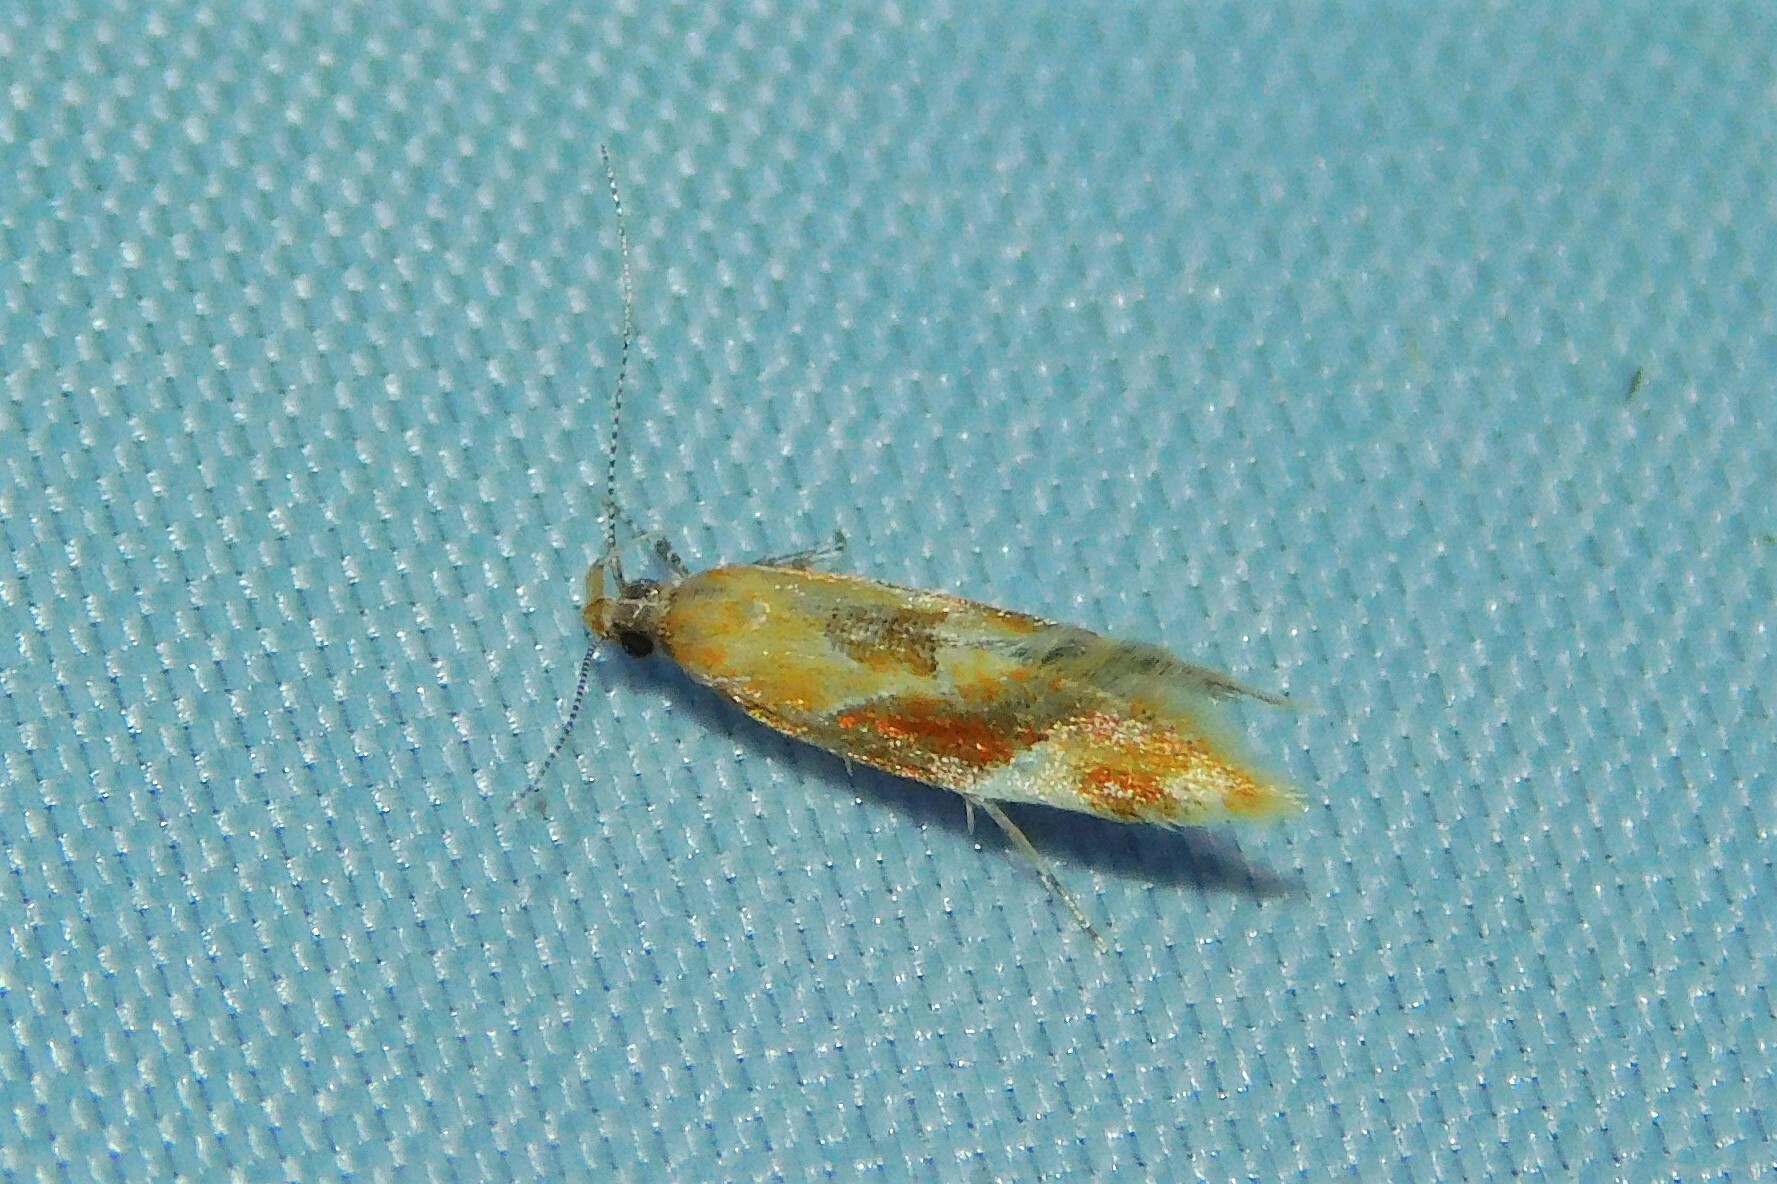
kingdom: Animalia
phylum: Arthropoda
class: Insecta
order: Lepidoptera
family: Oecophoridae
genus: Callima
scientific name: Callima formosella
